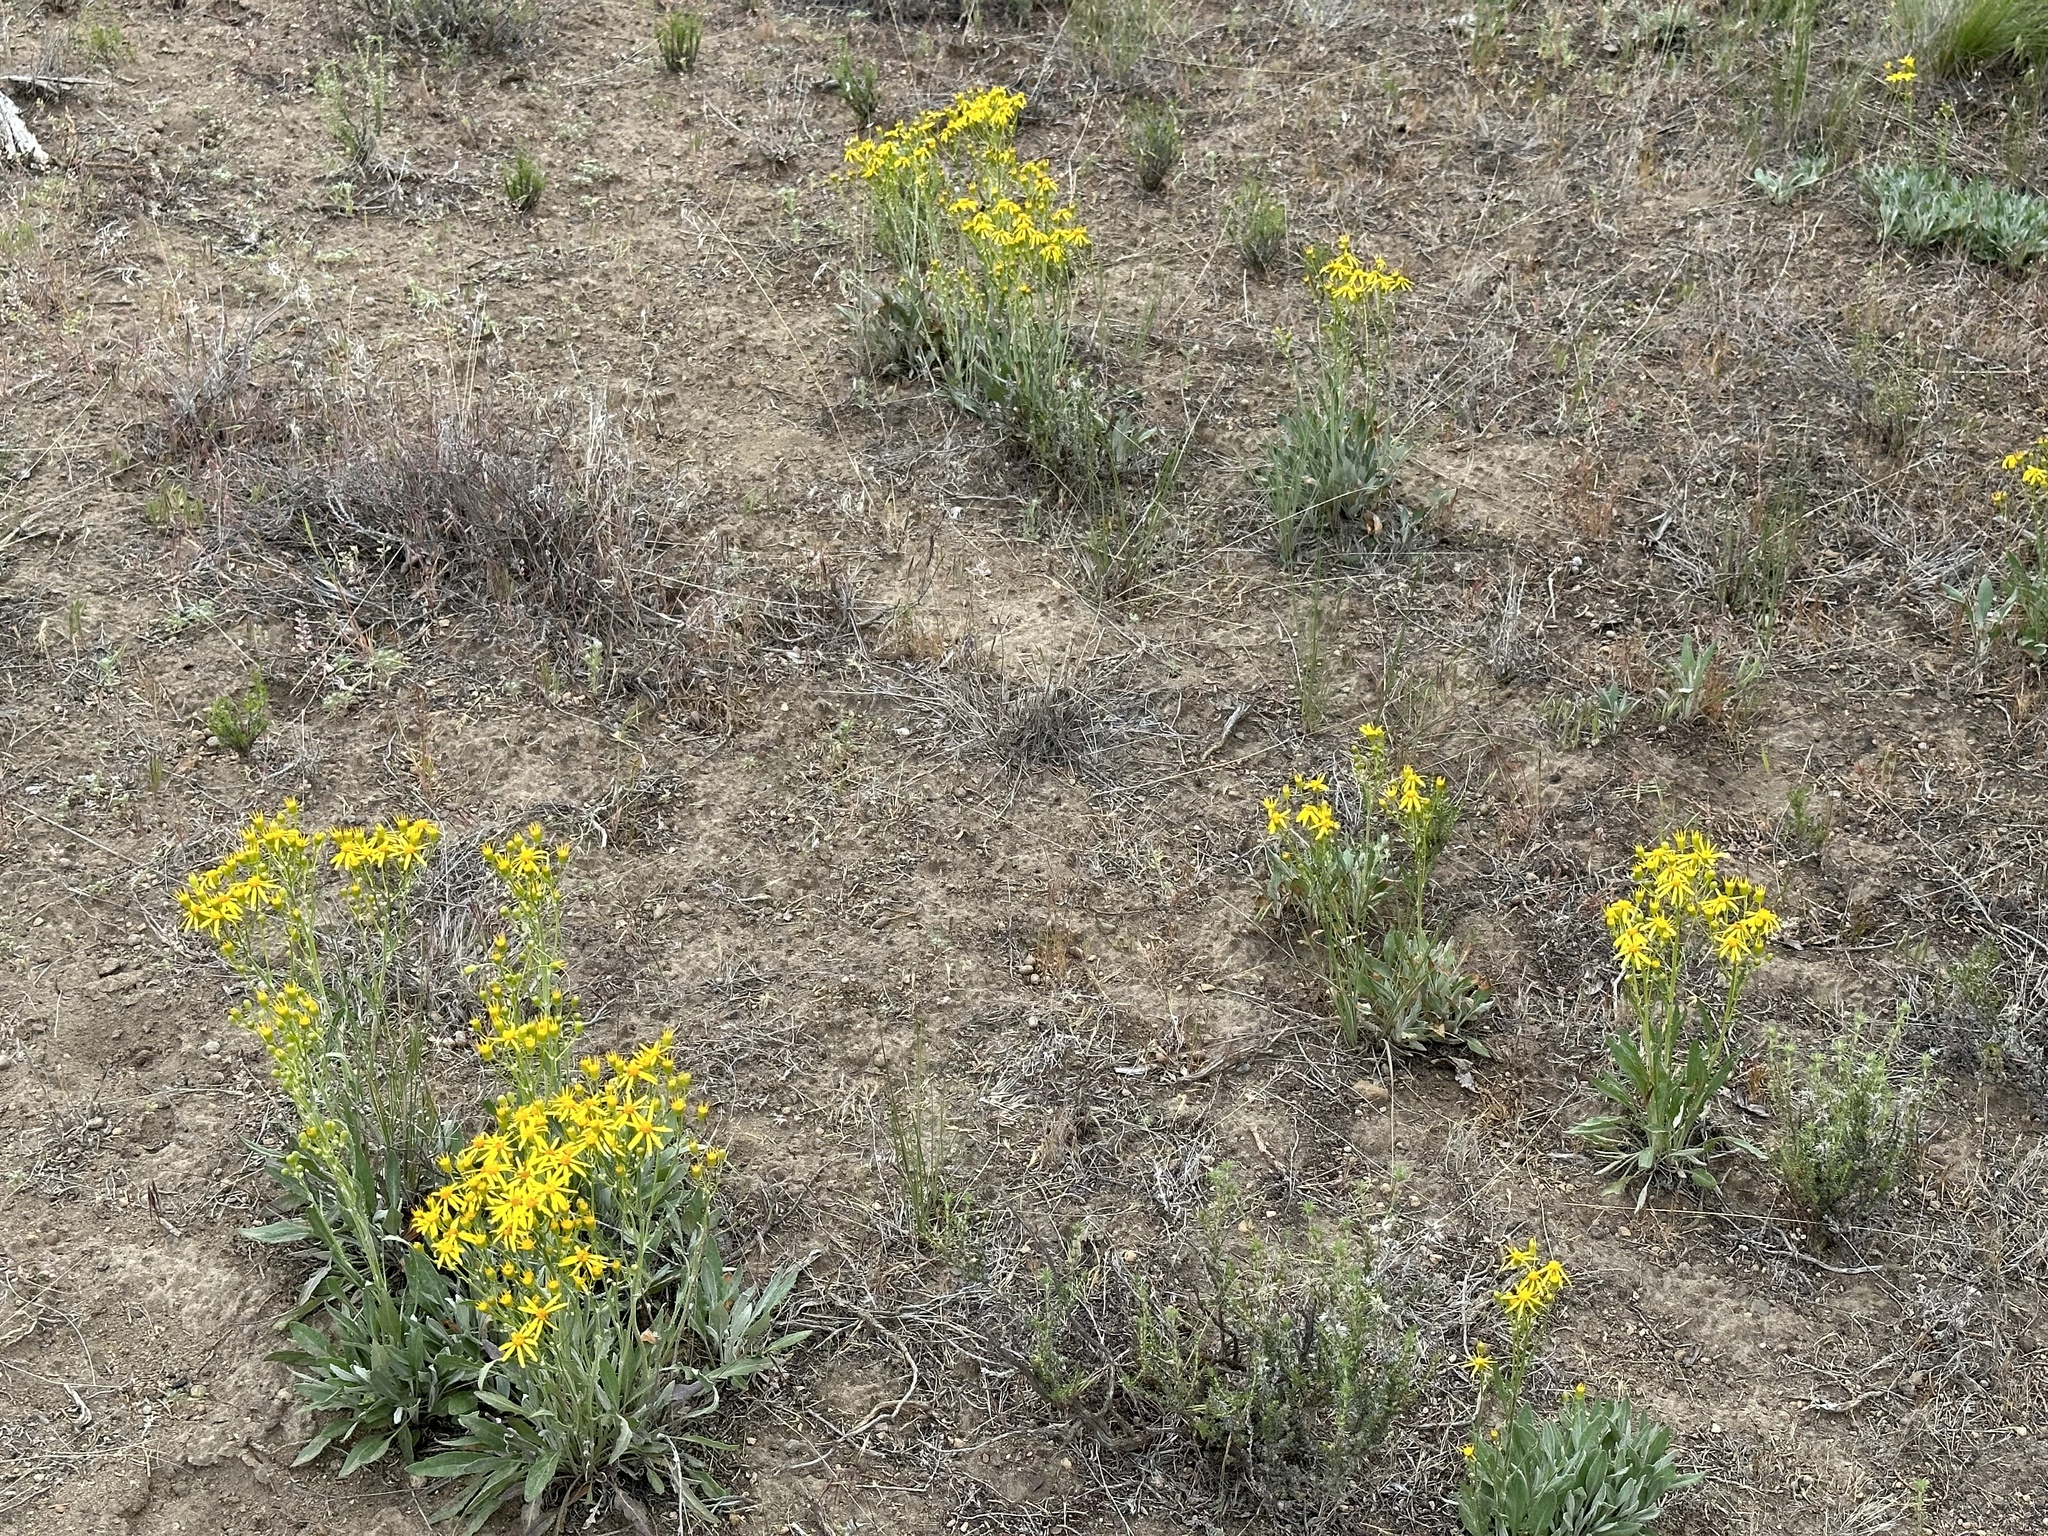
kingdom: Plantae
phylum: Tracheophyta
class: Magnoliopsida
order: Asterales
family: Asteraceae
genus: Packera
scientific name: Packera cana
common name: Woolly groundsel
